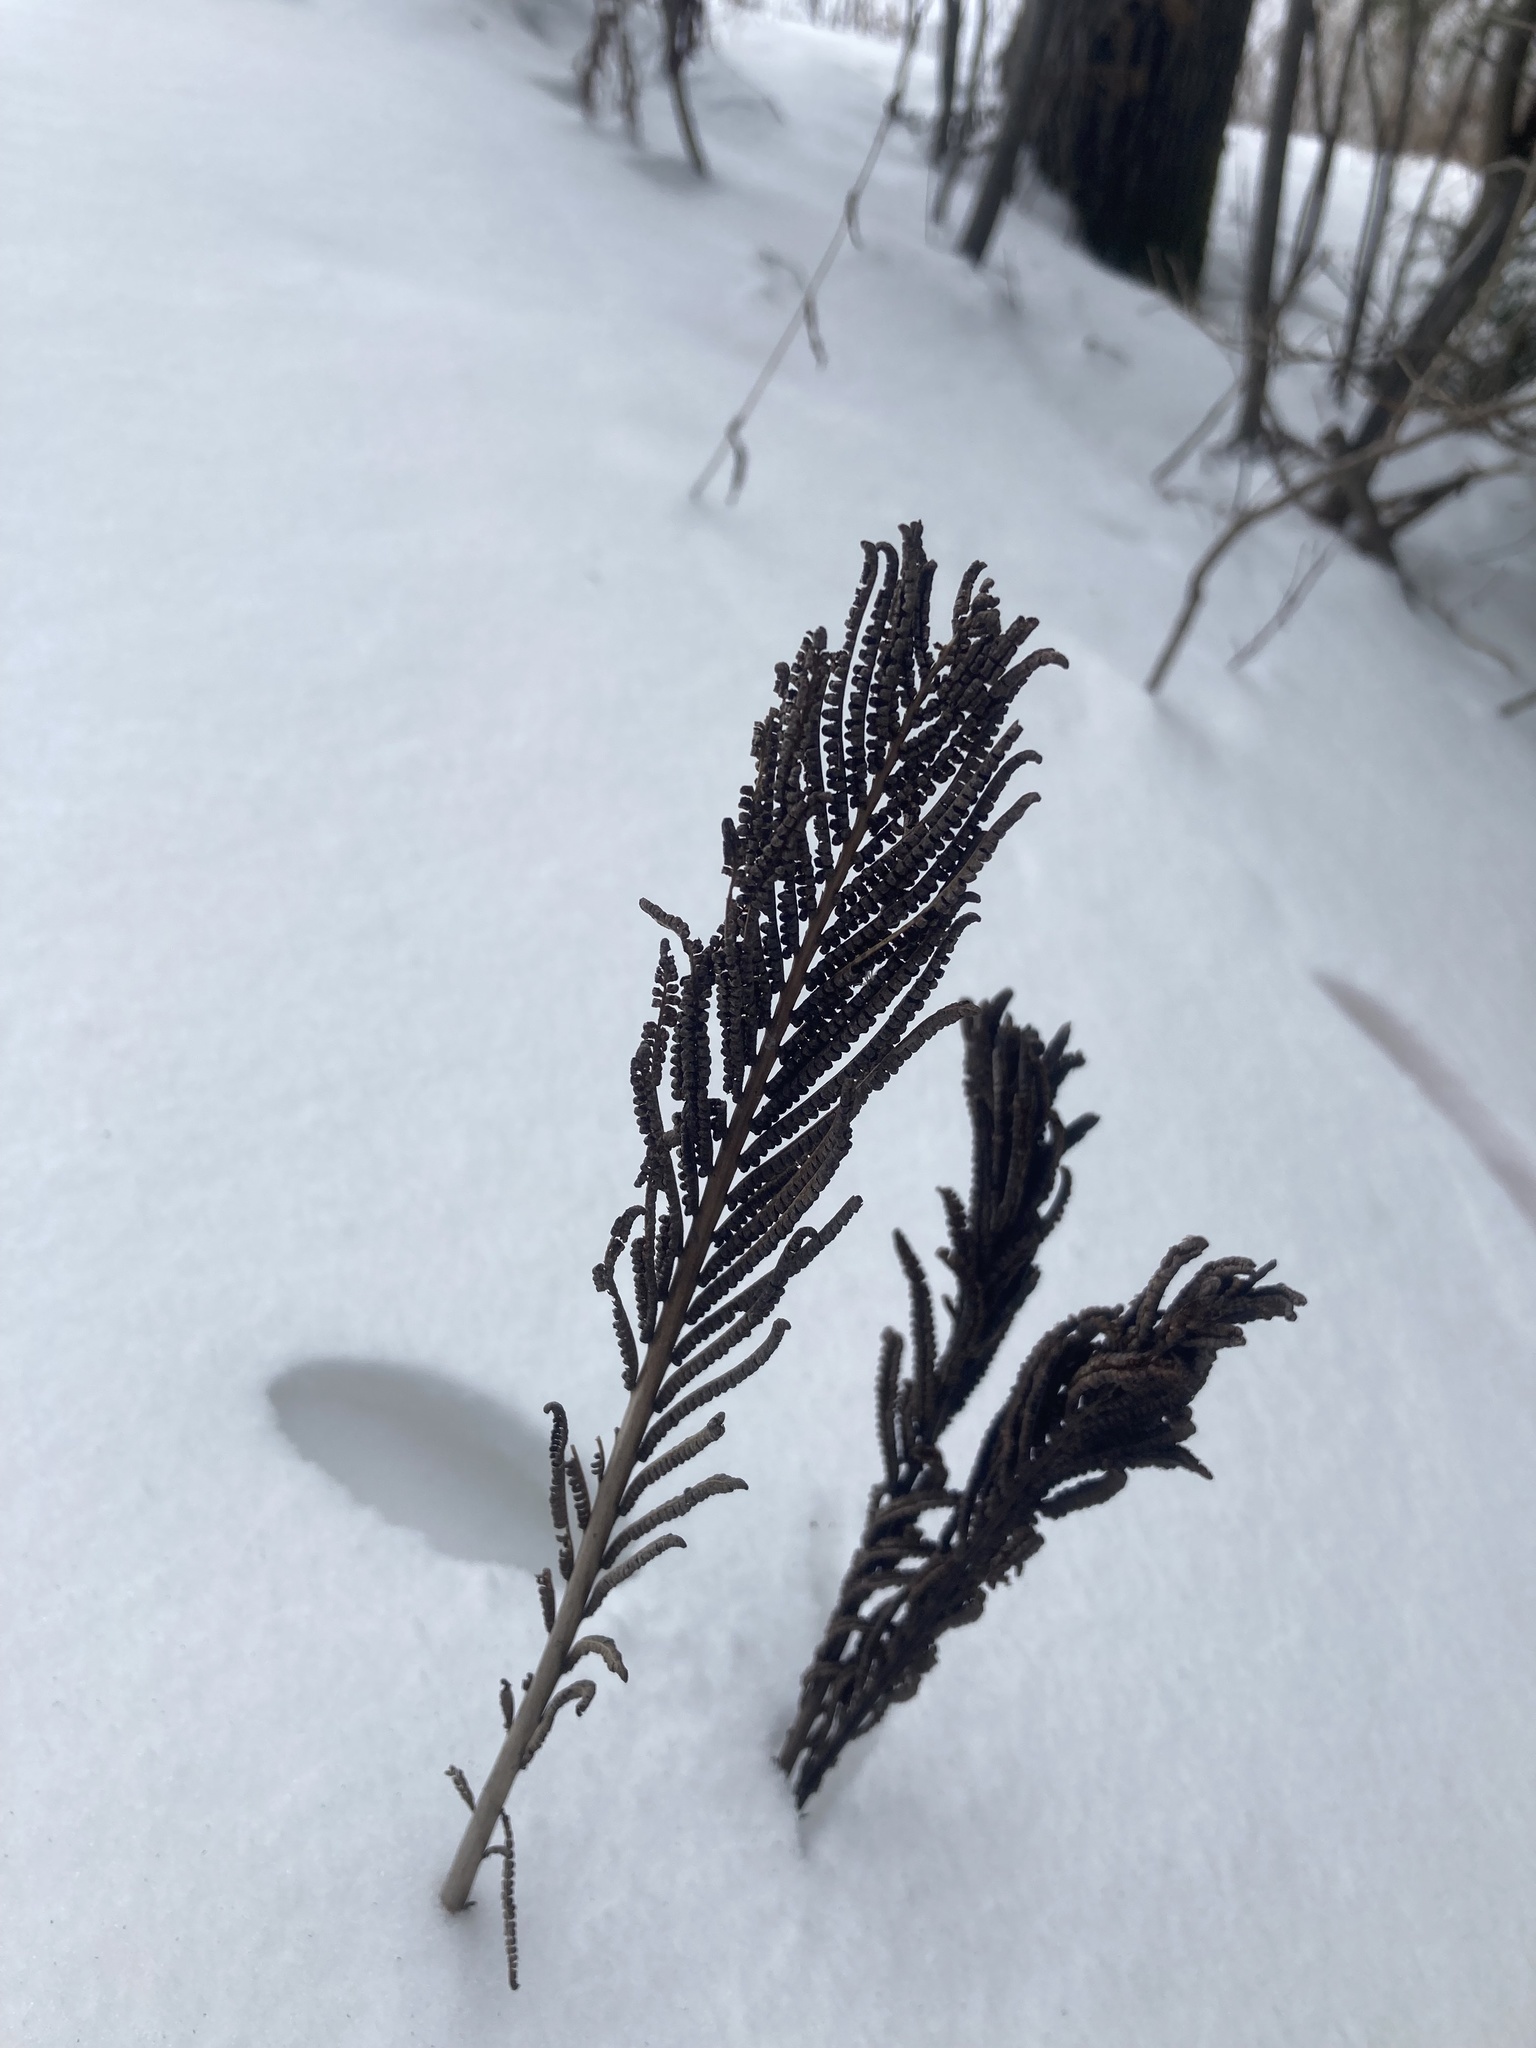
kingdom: Plantae
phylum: Tracheophyta
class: Polypodiopsida
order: Polypodiales
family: Onocleaceae
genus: Matteuccia
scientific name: Matteuccia struthiopteris
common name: Ostrich fern
